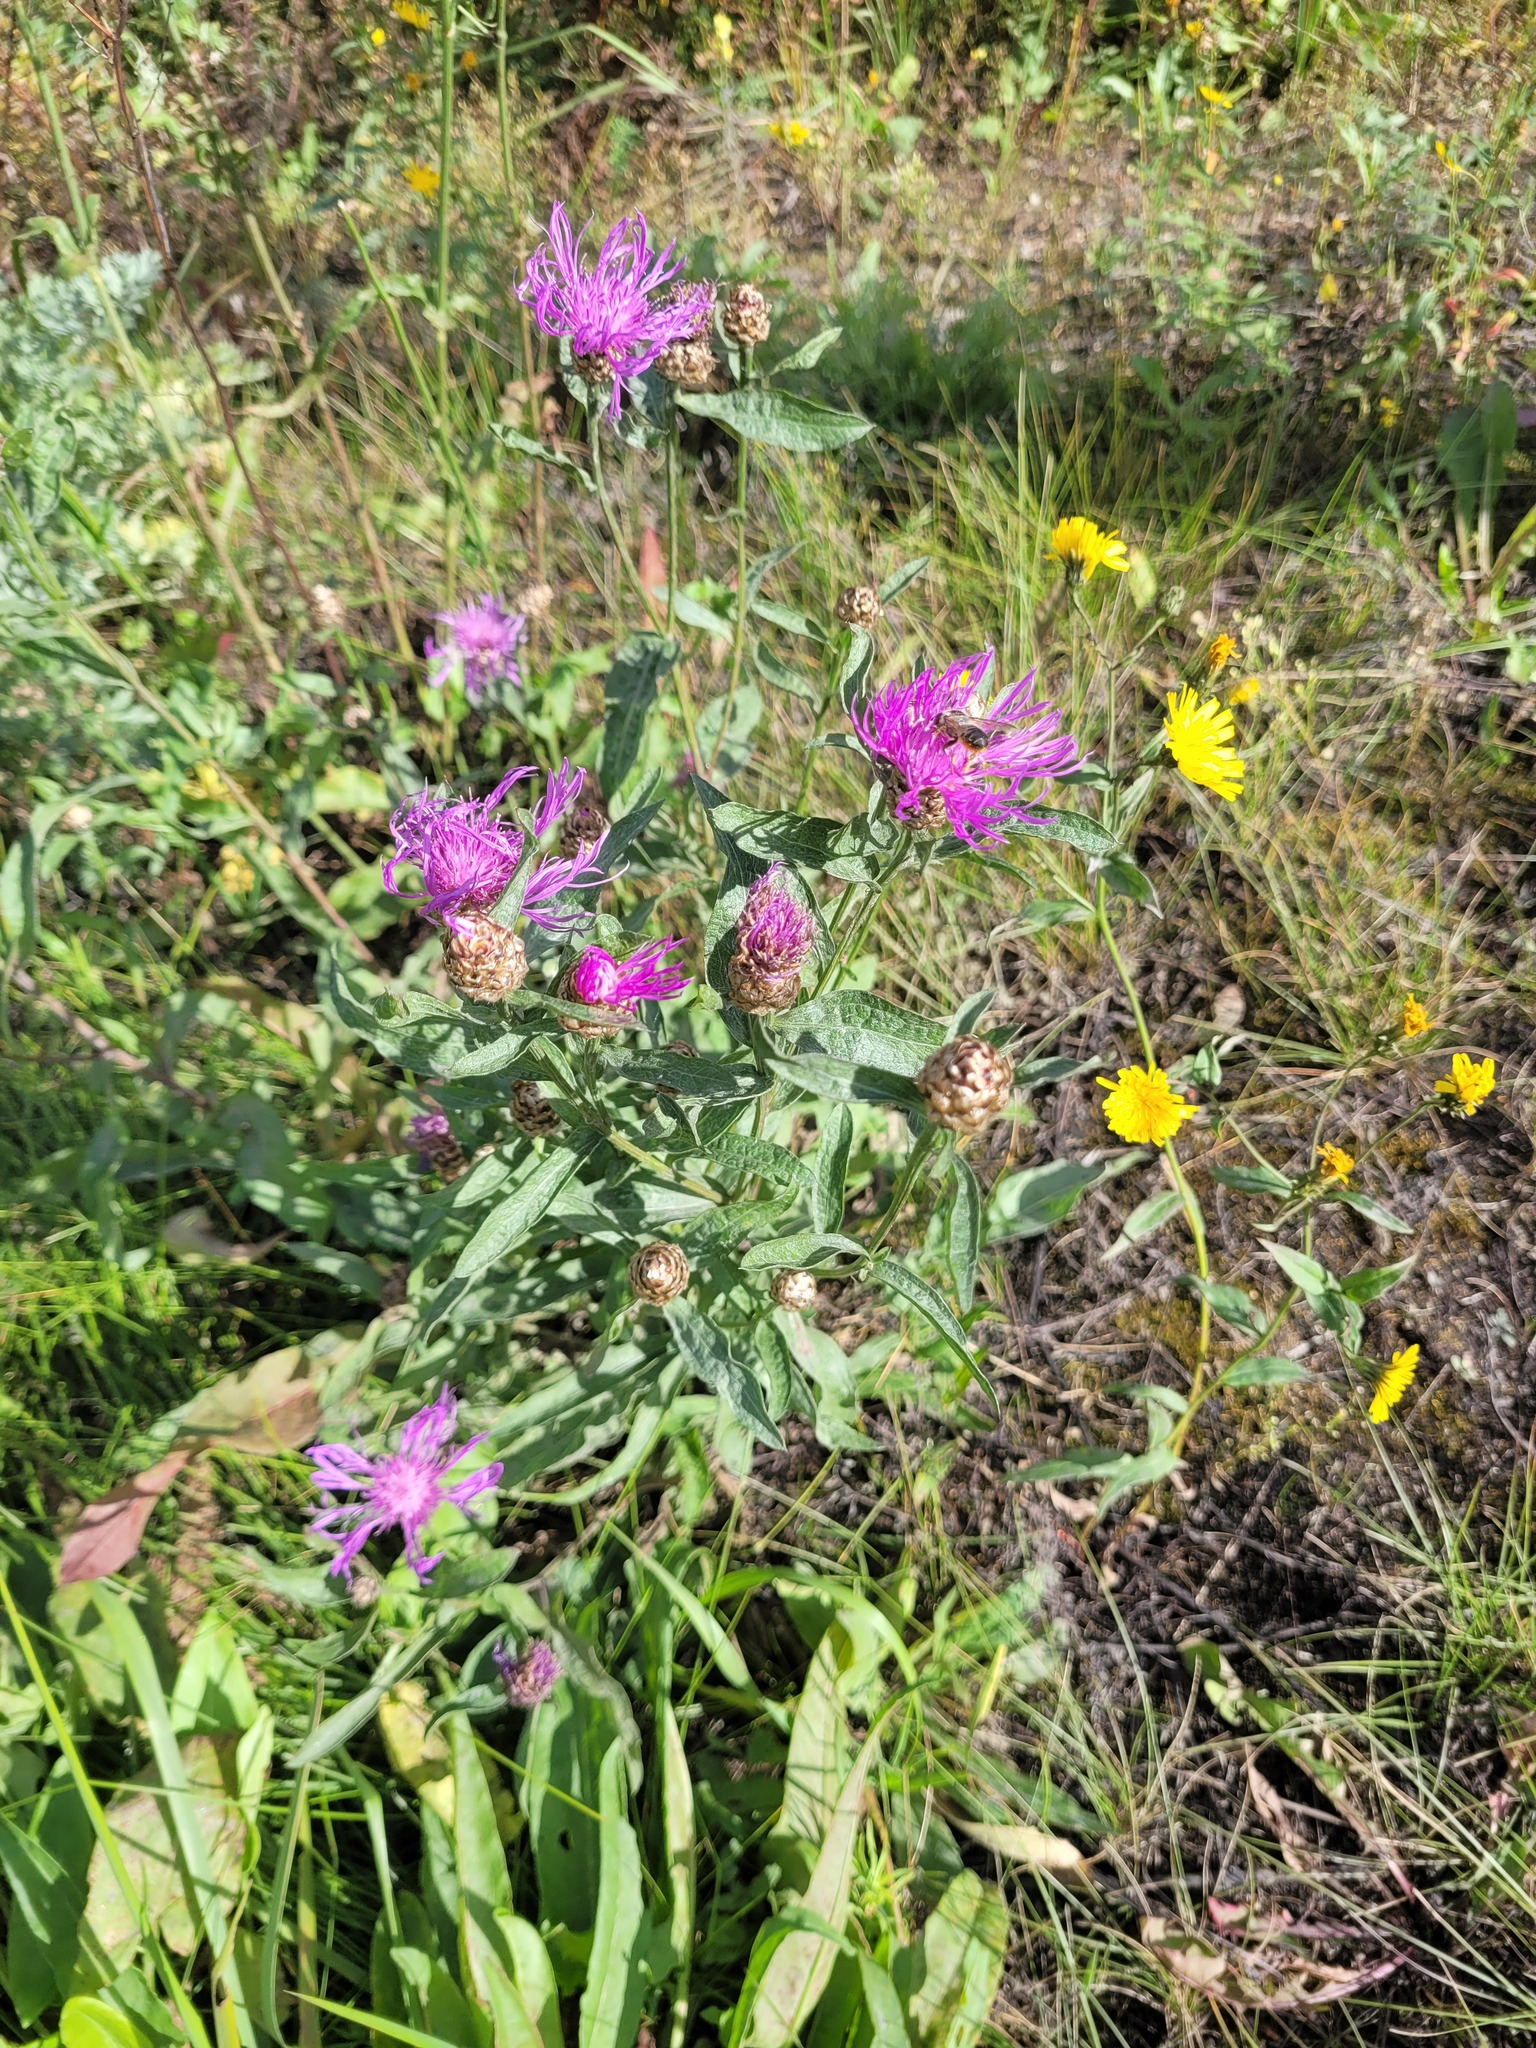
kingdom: Plantae
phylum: Tracheophyta
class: Magnoliopsida
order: Asterales
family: Asteraceae
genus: Centaurea
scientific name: Centaurea jacea
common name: Brown knapweed
